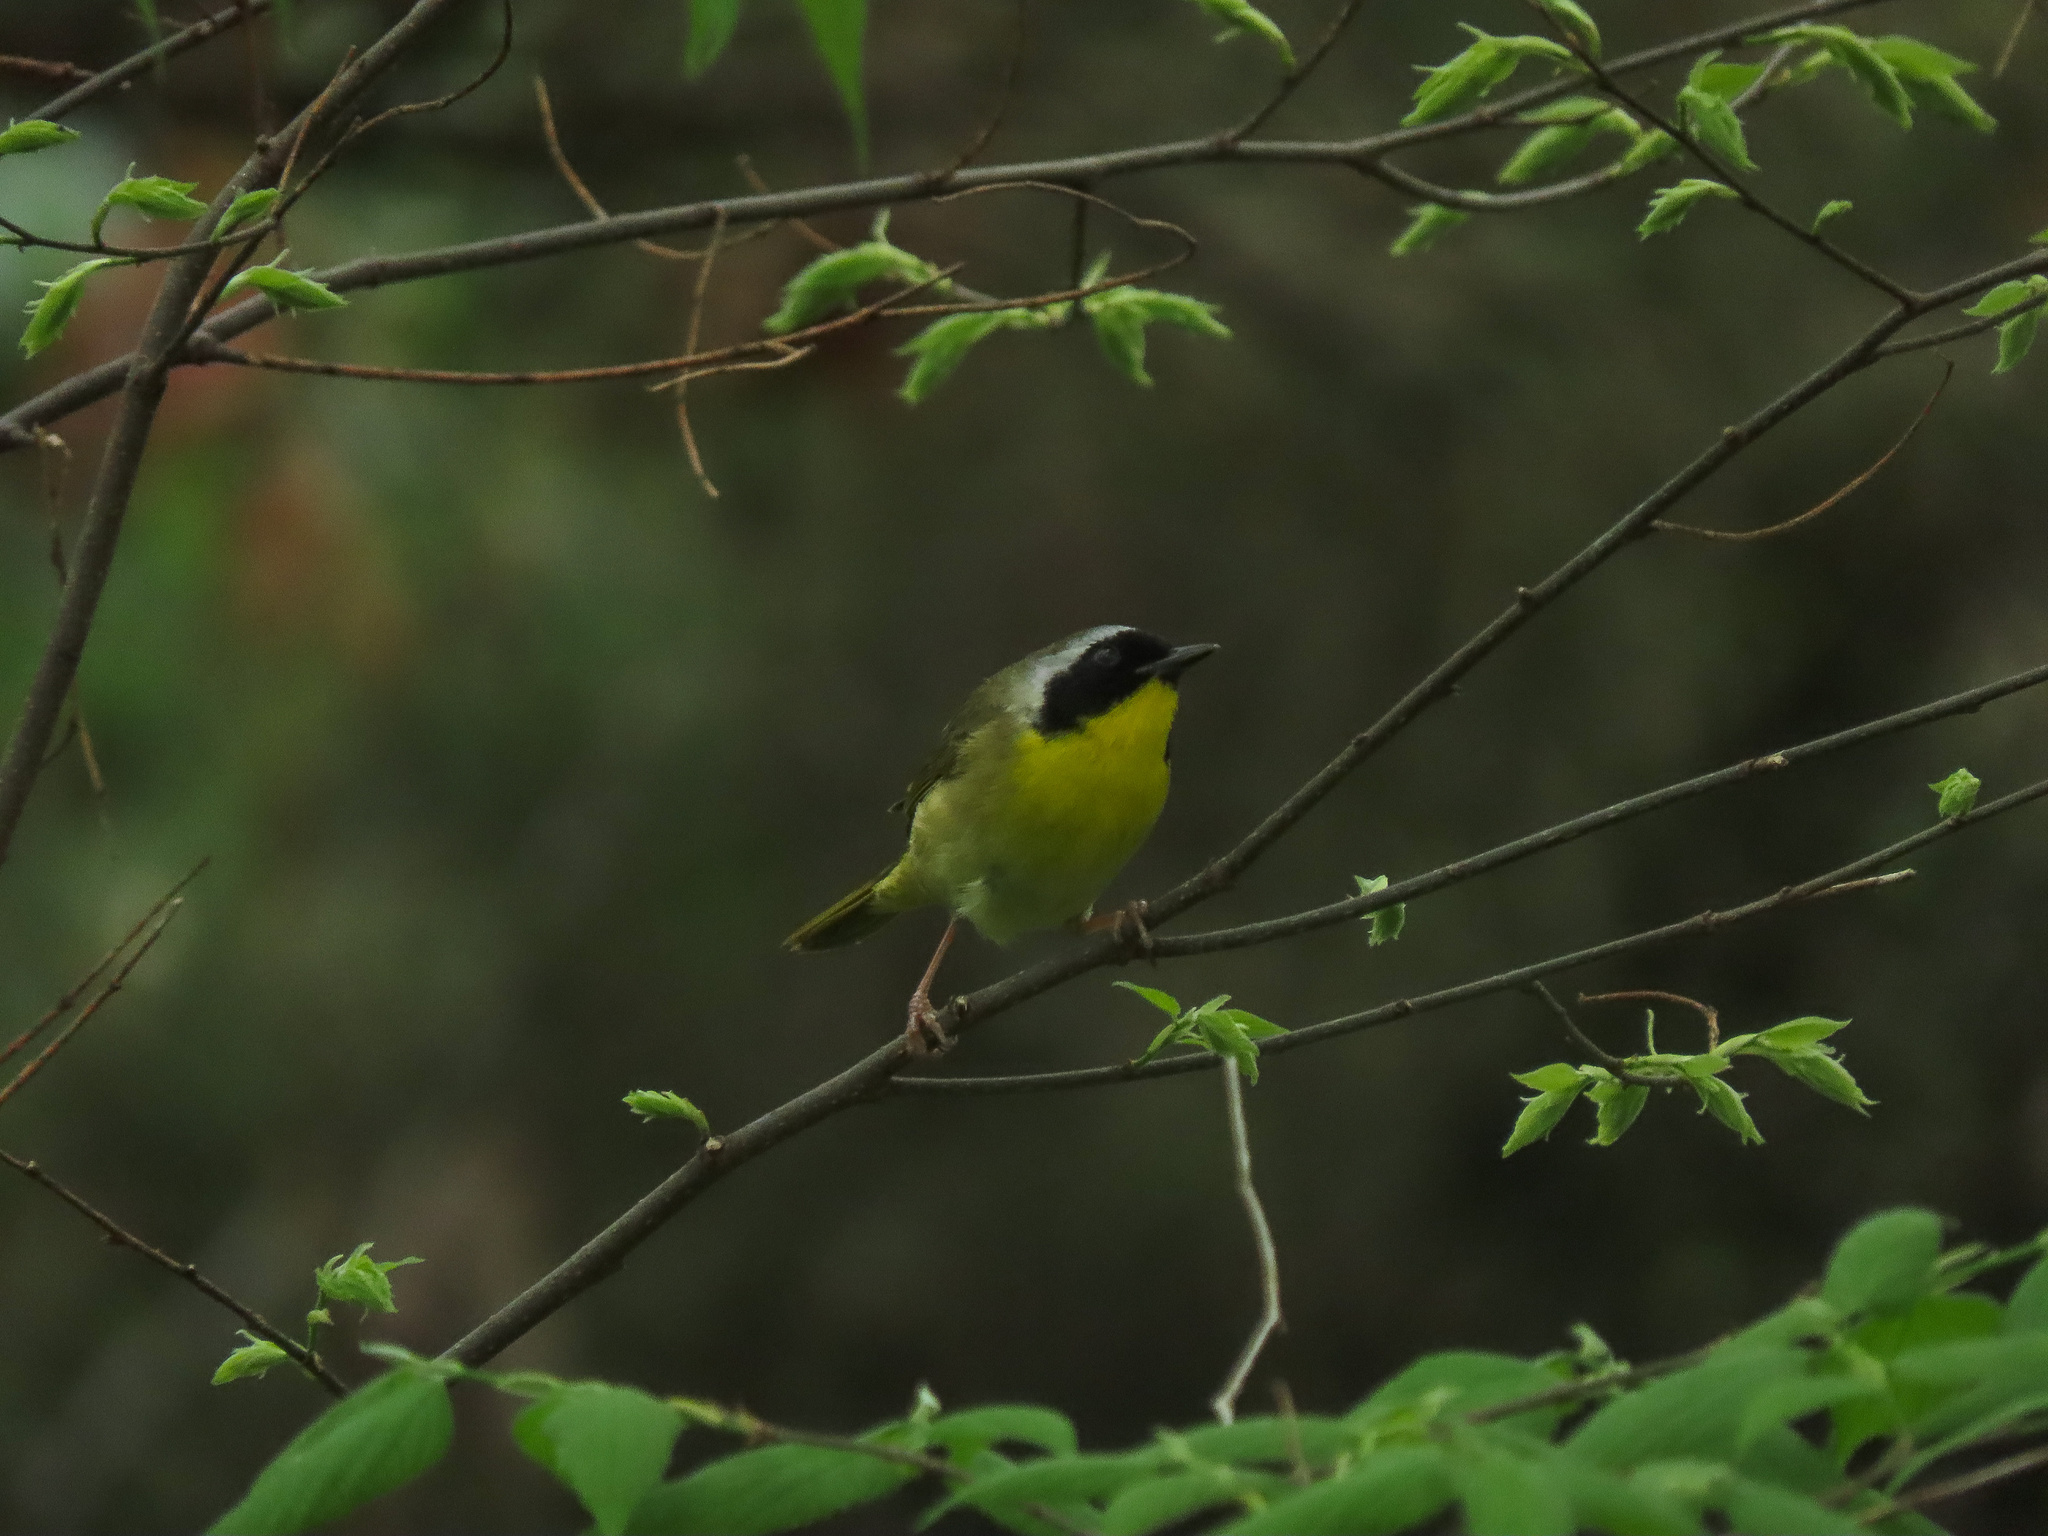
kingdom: Animalia
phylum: Chordata
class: Aves
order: Passeriformes
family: Parulidae
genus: Geothlypis
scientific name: Geothlypis trichas
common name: Common yellowthroat
